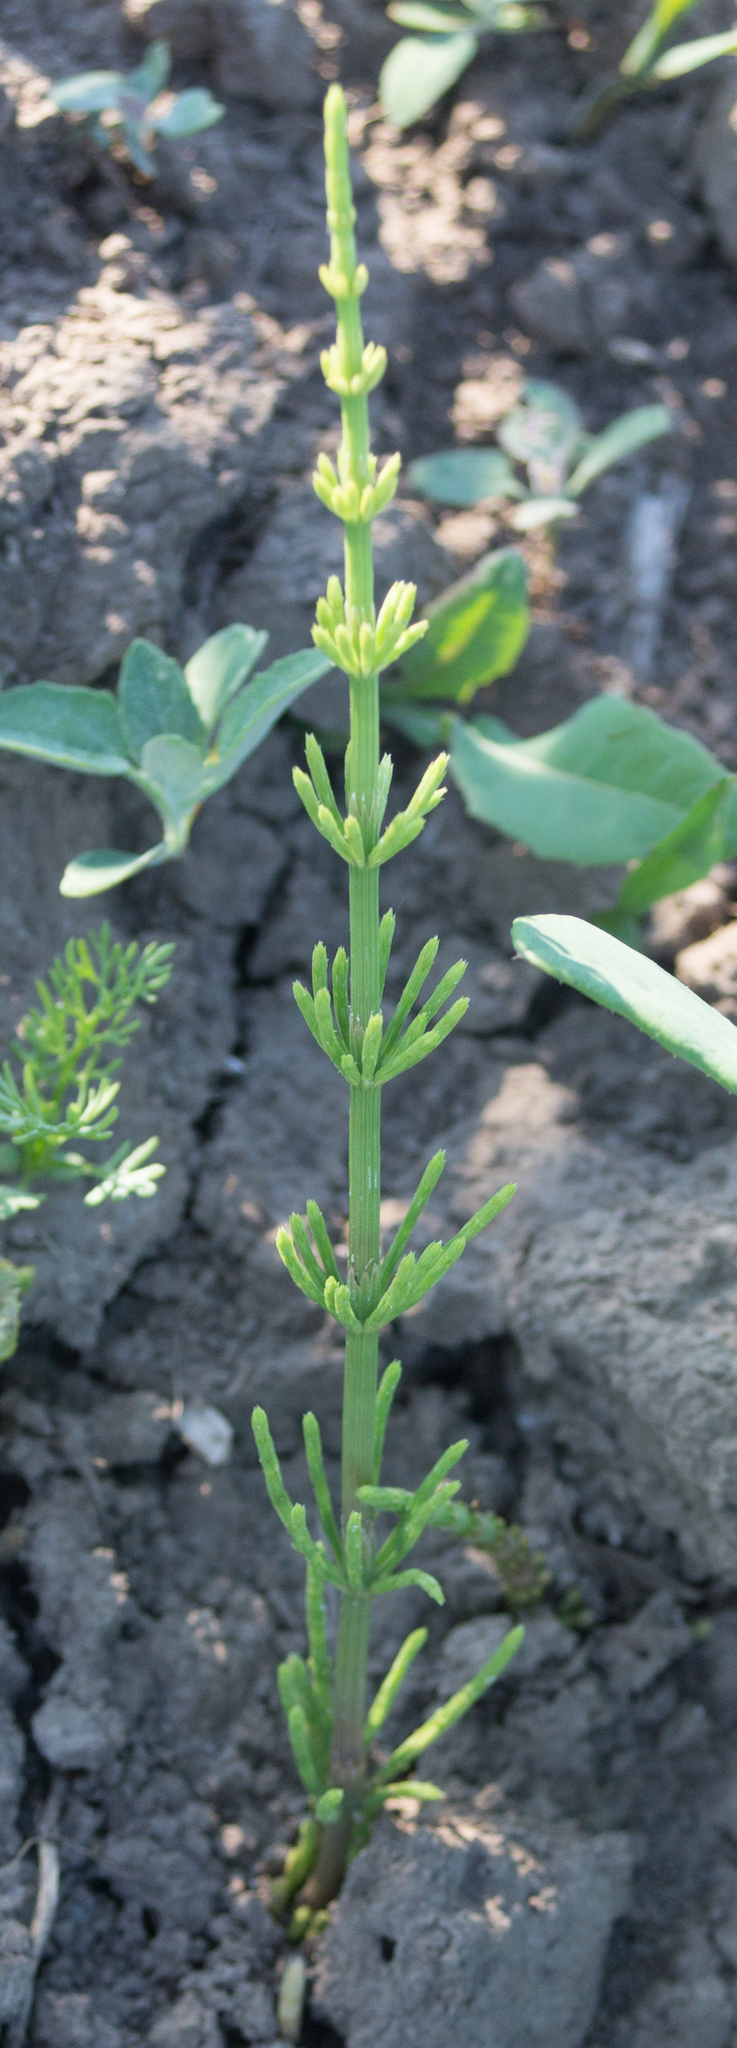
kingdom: Plantae
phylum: Tracheophyta
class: Polypodiopsida
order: Equisetales
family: Equisetaceae
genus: Equisetum
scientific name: Equisetum arvense
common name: Field horsetail
